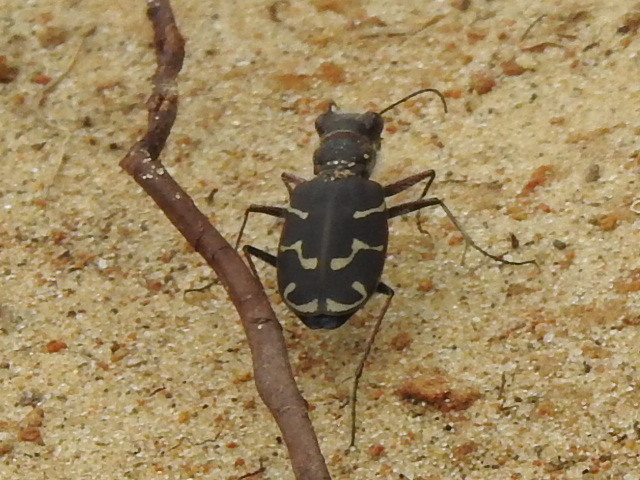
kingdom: Animalia
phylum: Arthropoda
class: Insecta
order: Coleoptera
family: Carabidae
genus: Cicindela
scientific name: Cicindela tranquebarica
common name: Oblique-lined tiger beetle
